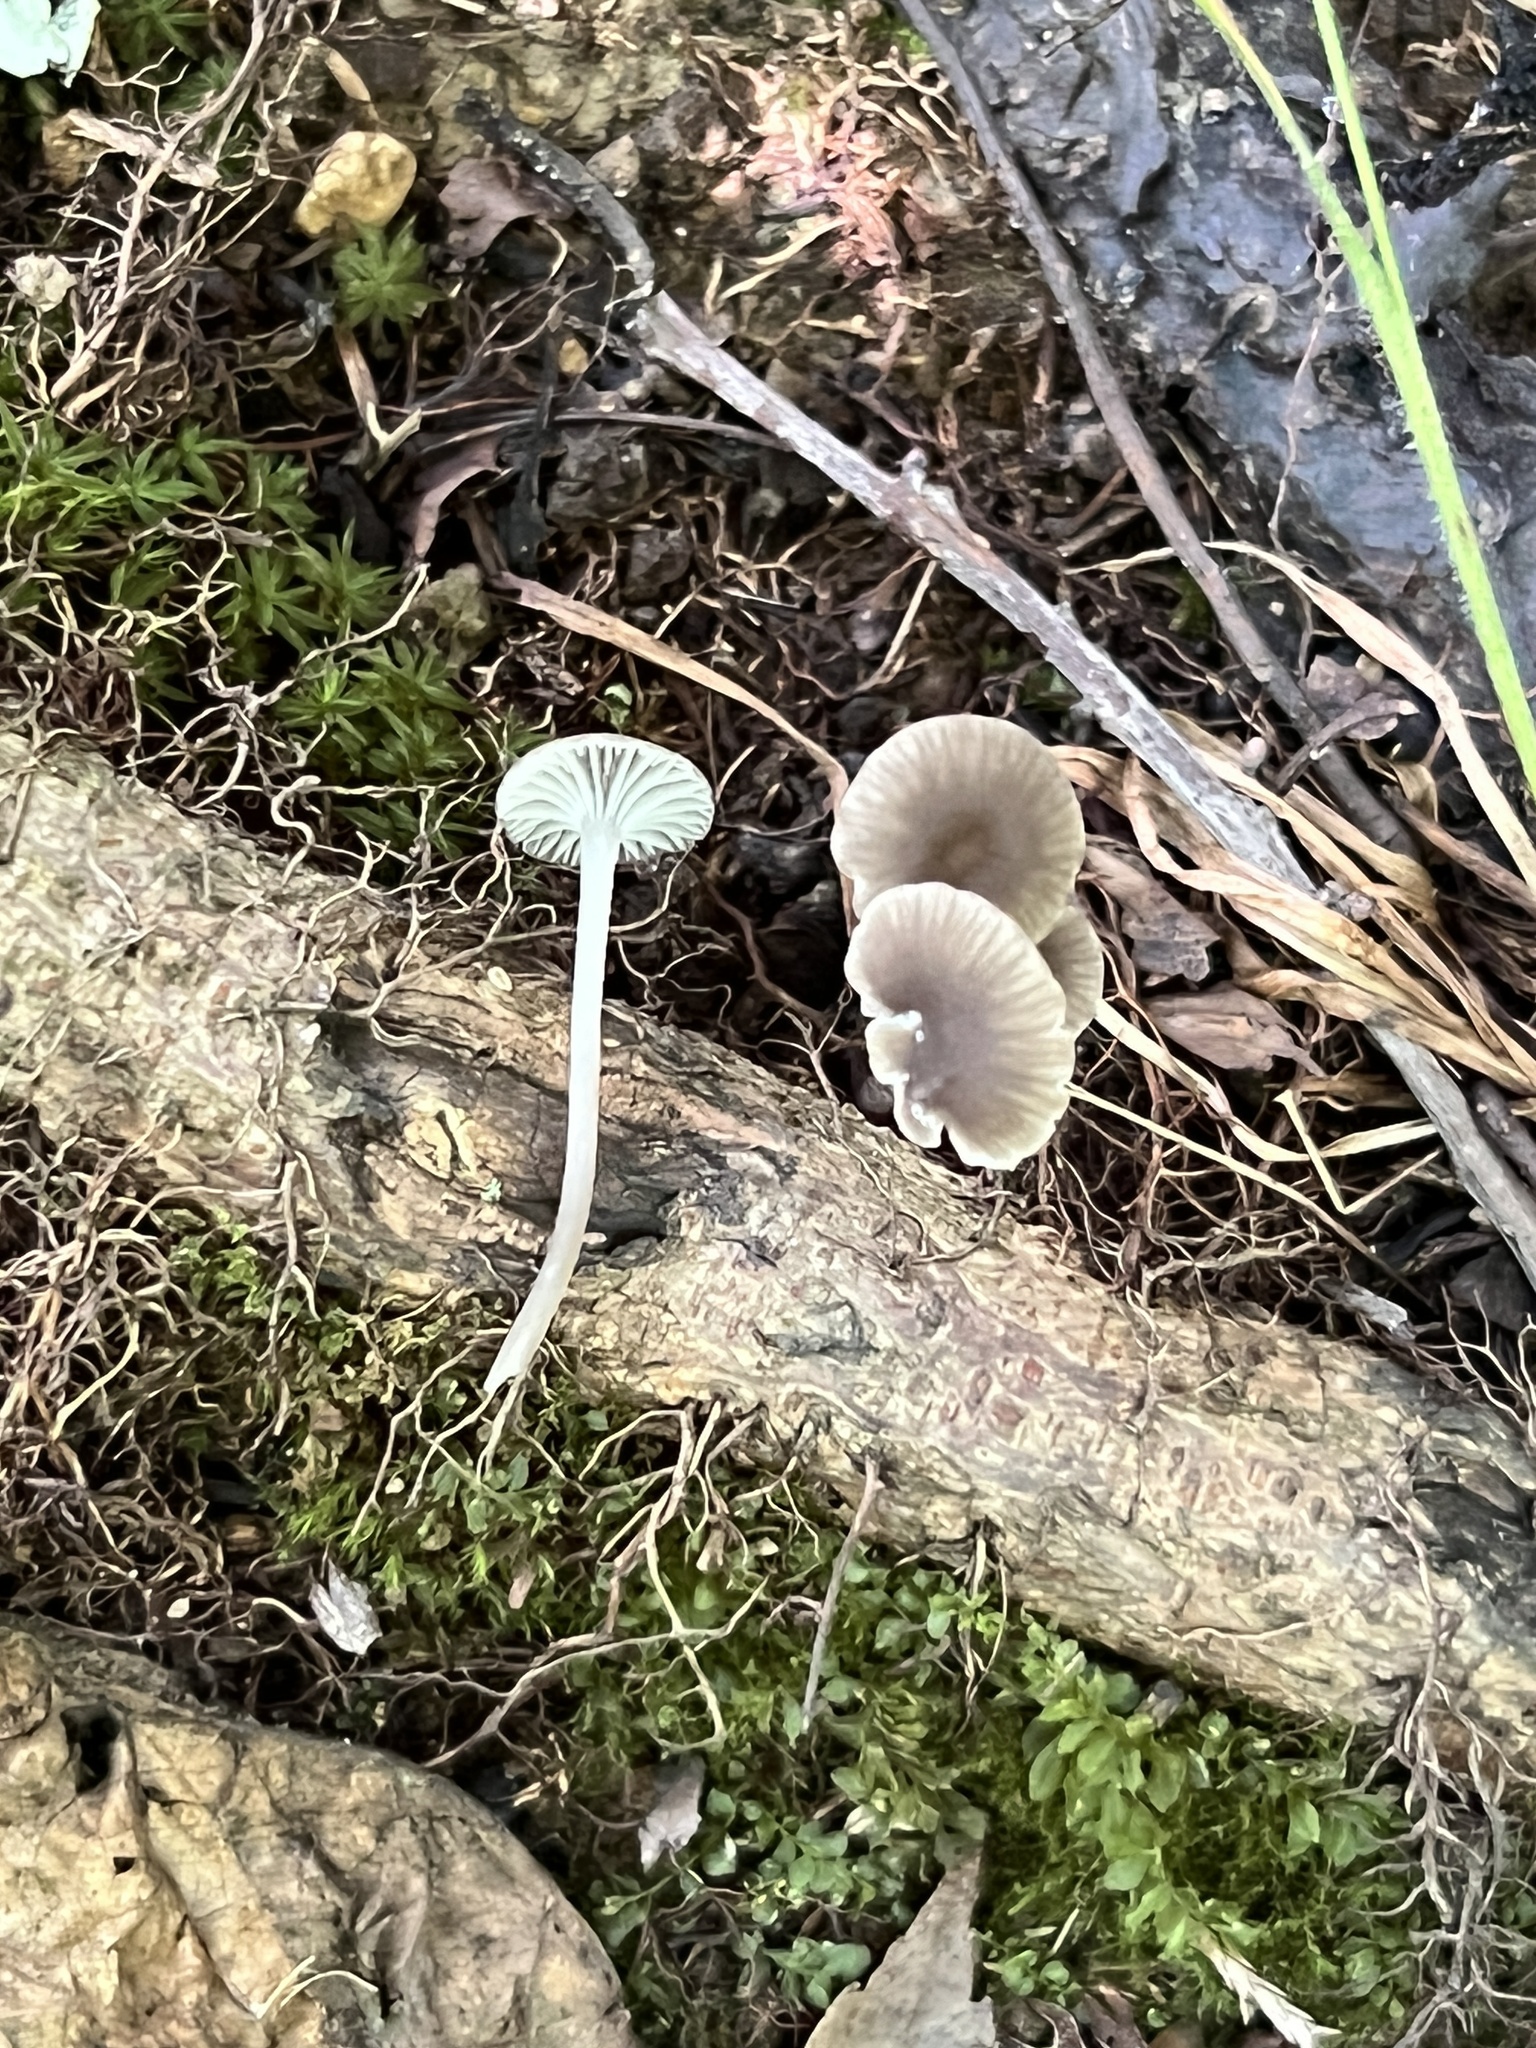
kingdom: Fungi
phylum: Basidiomycota
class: Agaricomycetes
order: Agaricales
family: Mycenaceae
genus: Hydropus
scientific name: Hydropus praedecurrens
